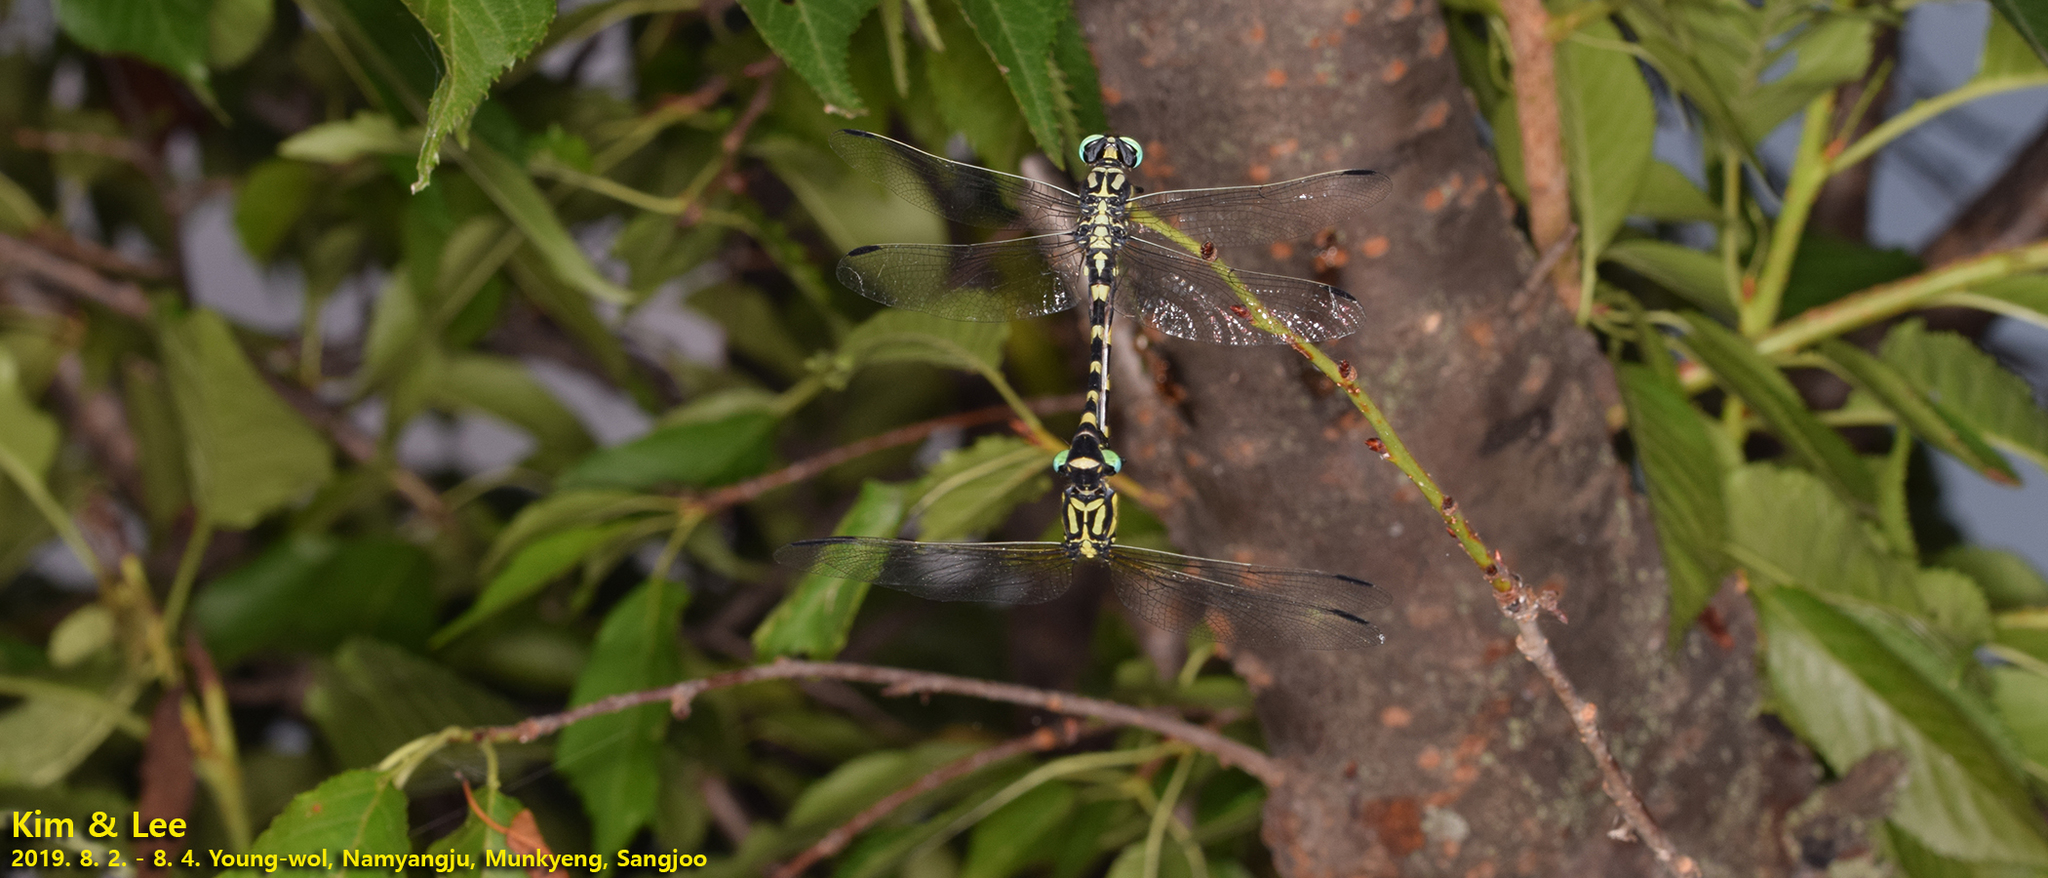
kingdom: Animalia
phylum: Arthropoda
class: Insecta
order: Odonata
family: Gomphidae
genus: Lamelligomphus
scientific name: Lamelligomphus ringens
